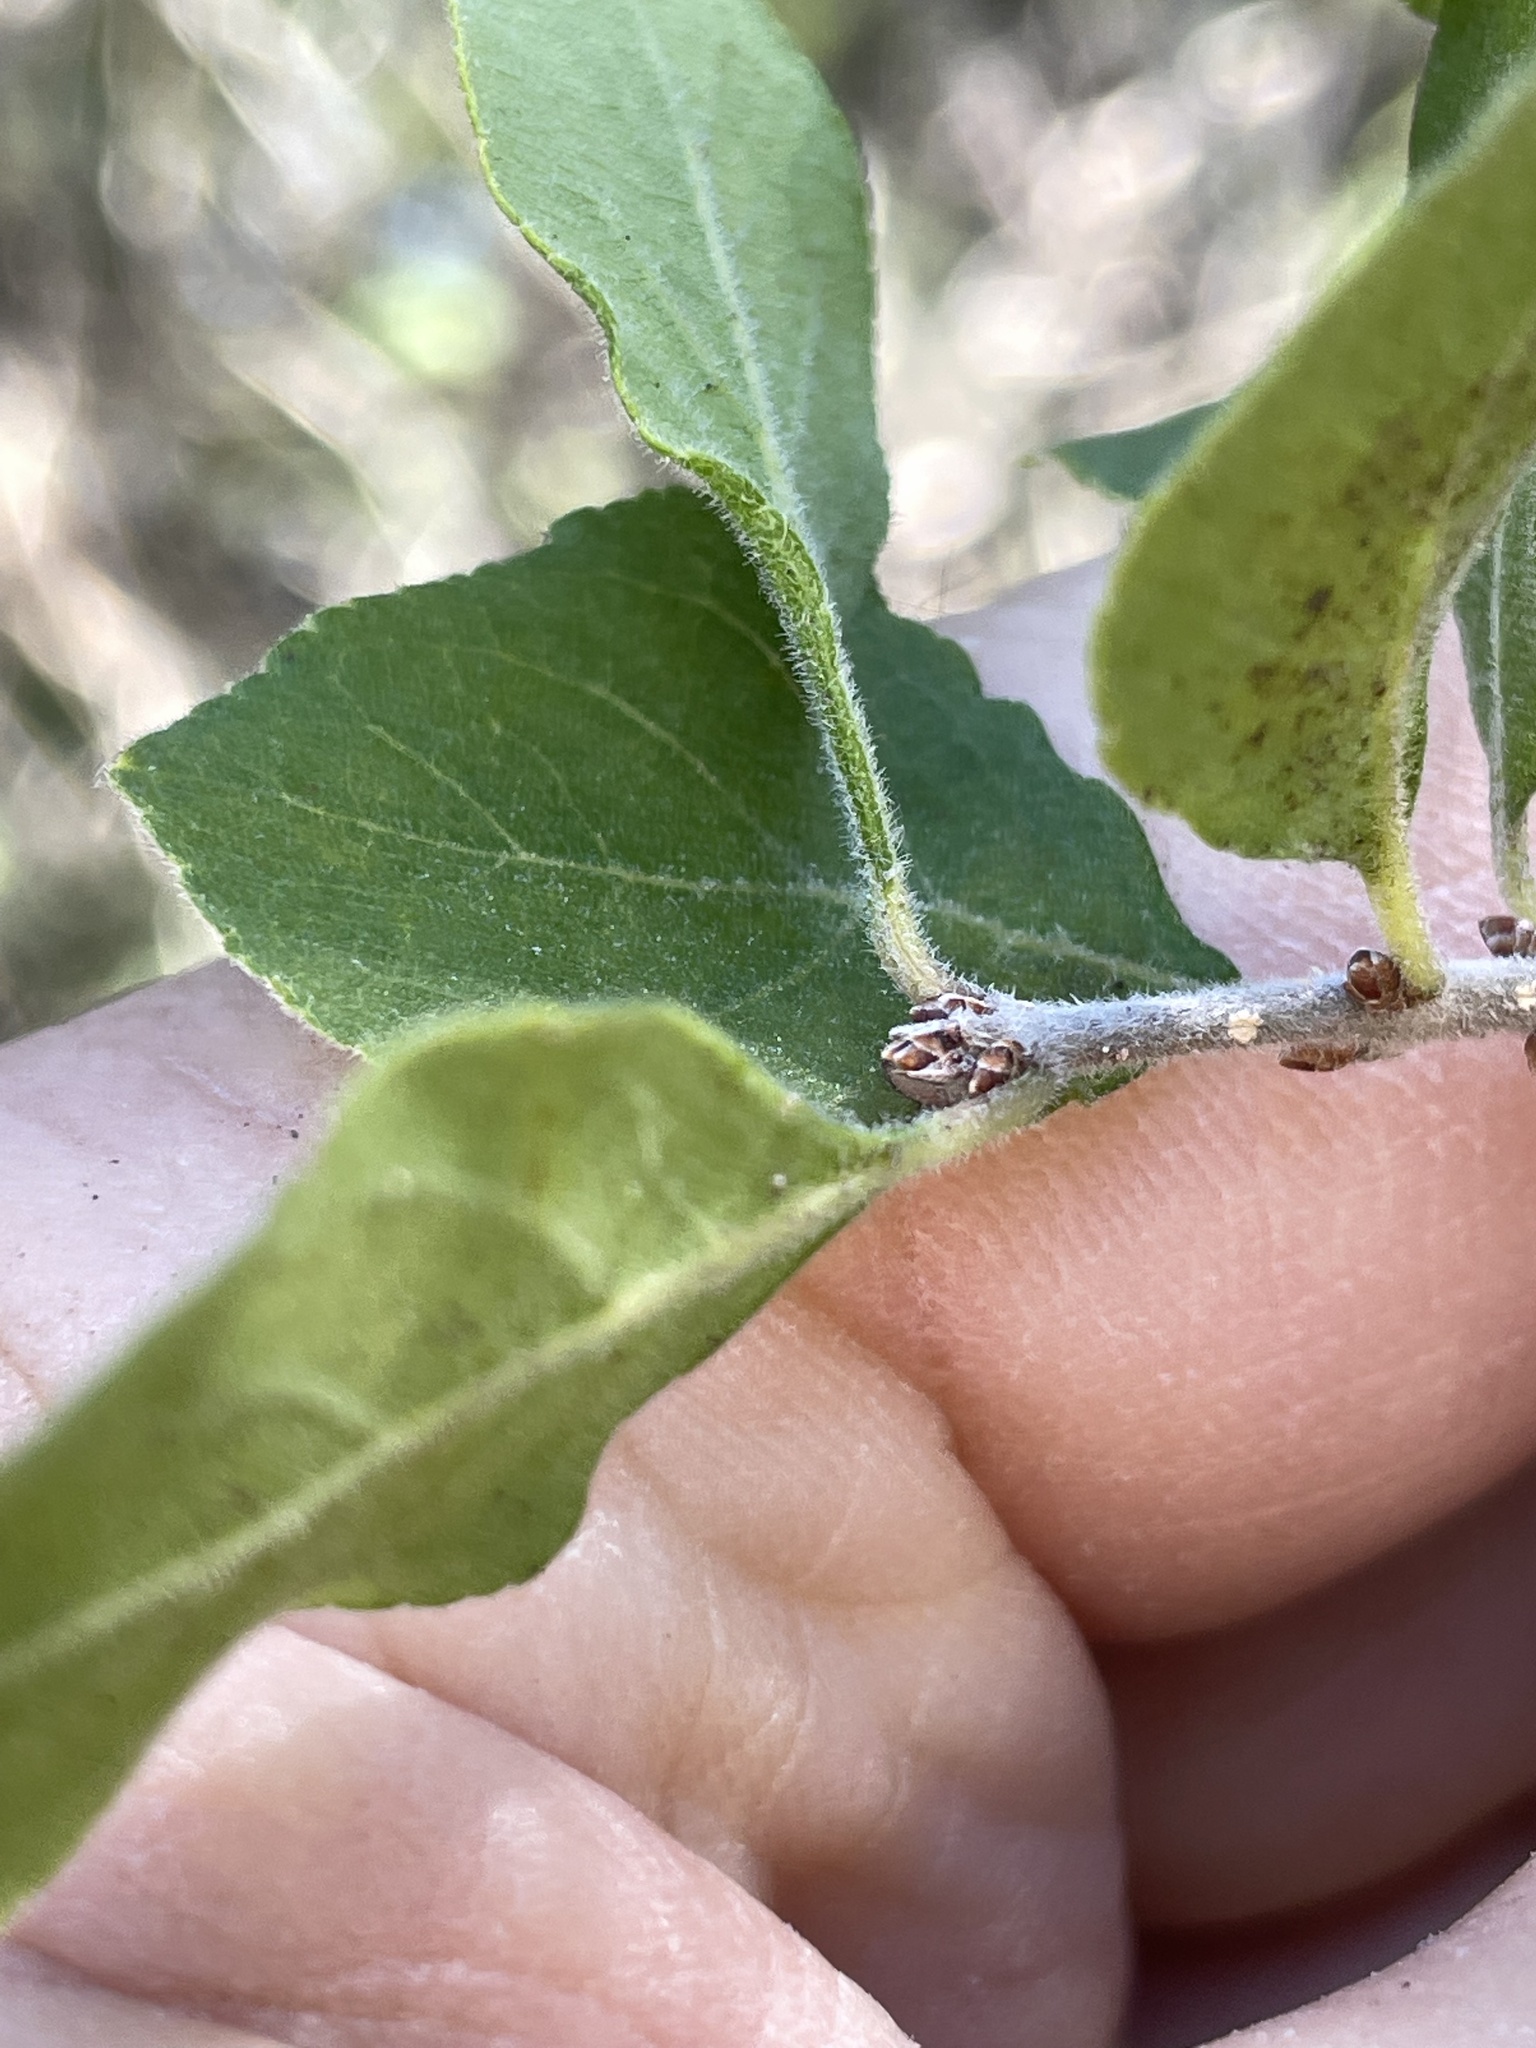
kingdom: Plantae
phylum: Tracheophyta
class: Magnoliopsida
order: Lamiales
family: Oleaceae
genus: Forestiera
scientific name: Forestiera pubescens
